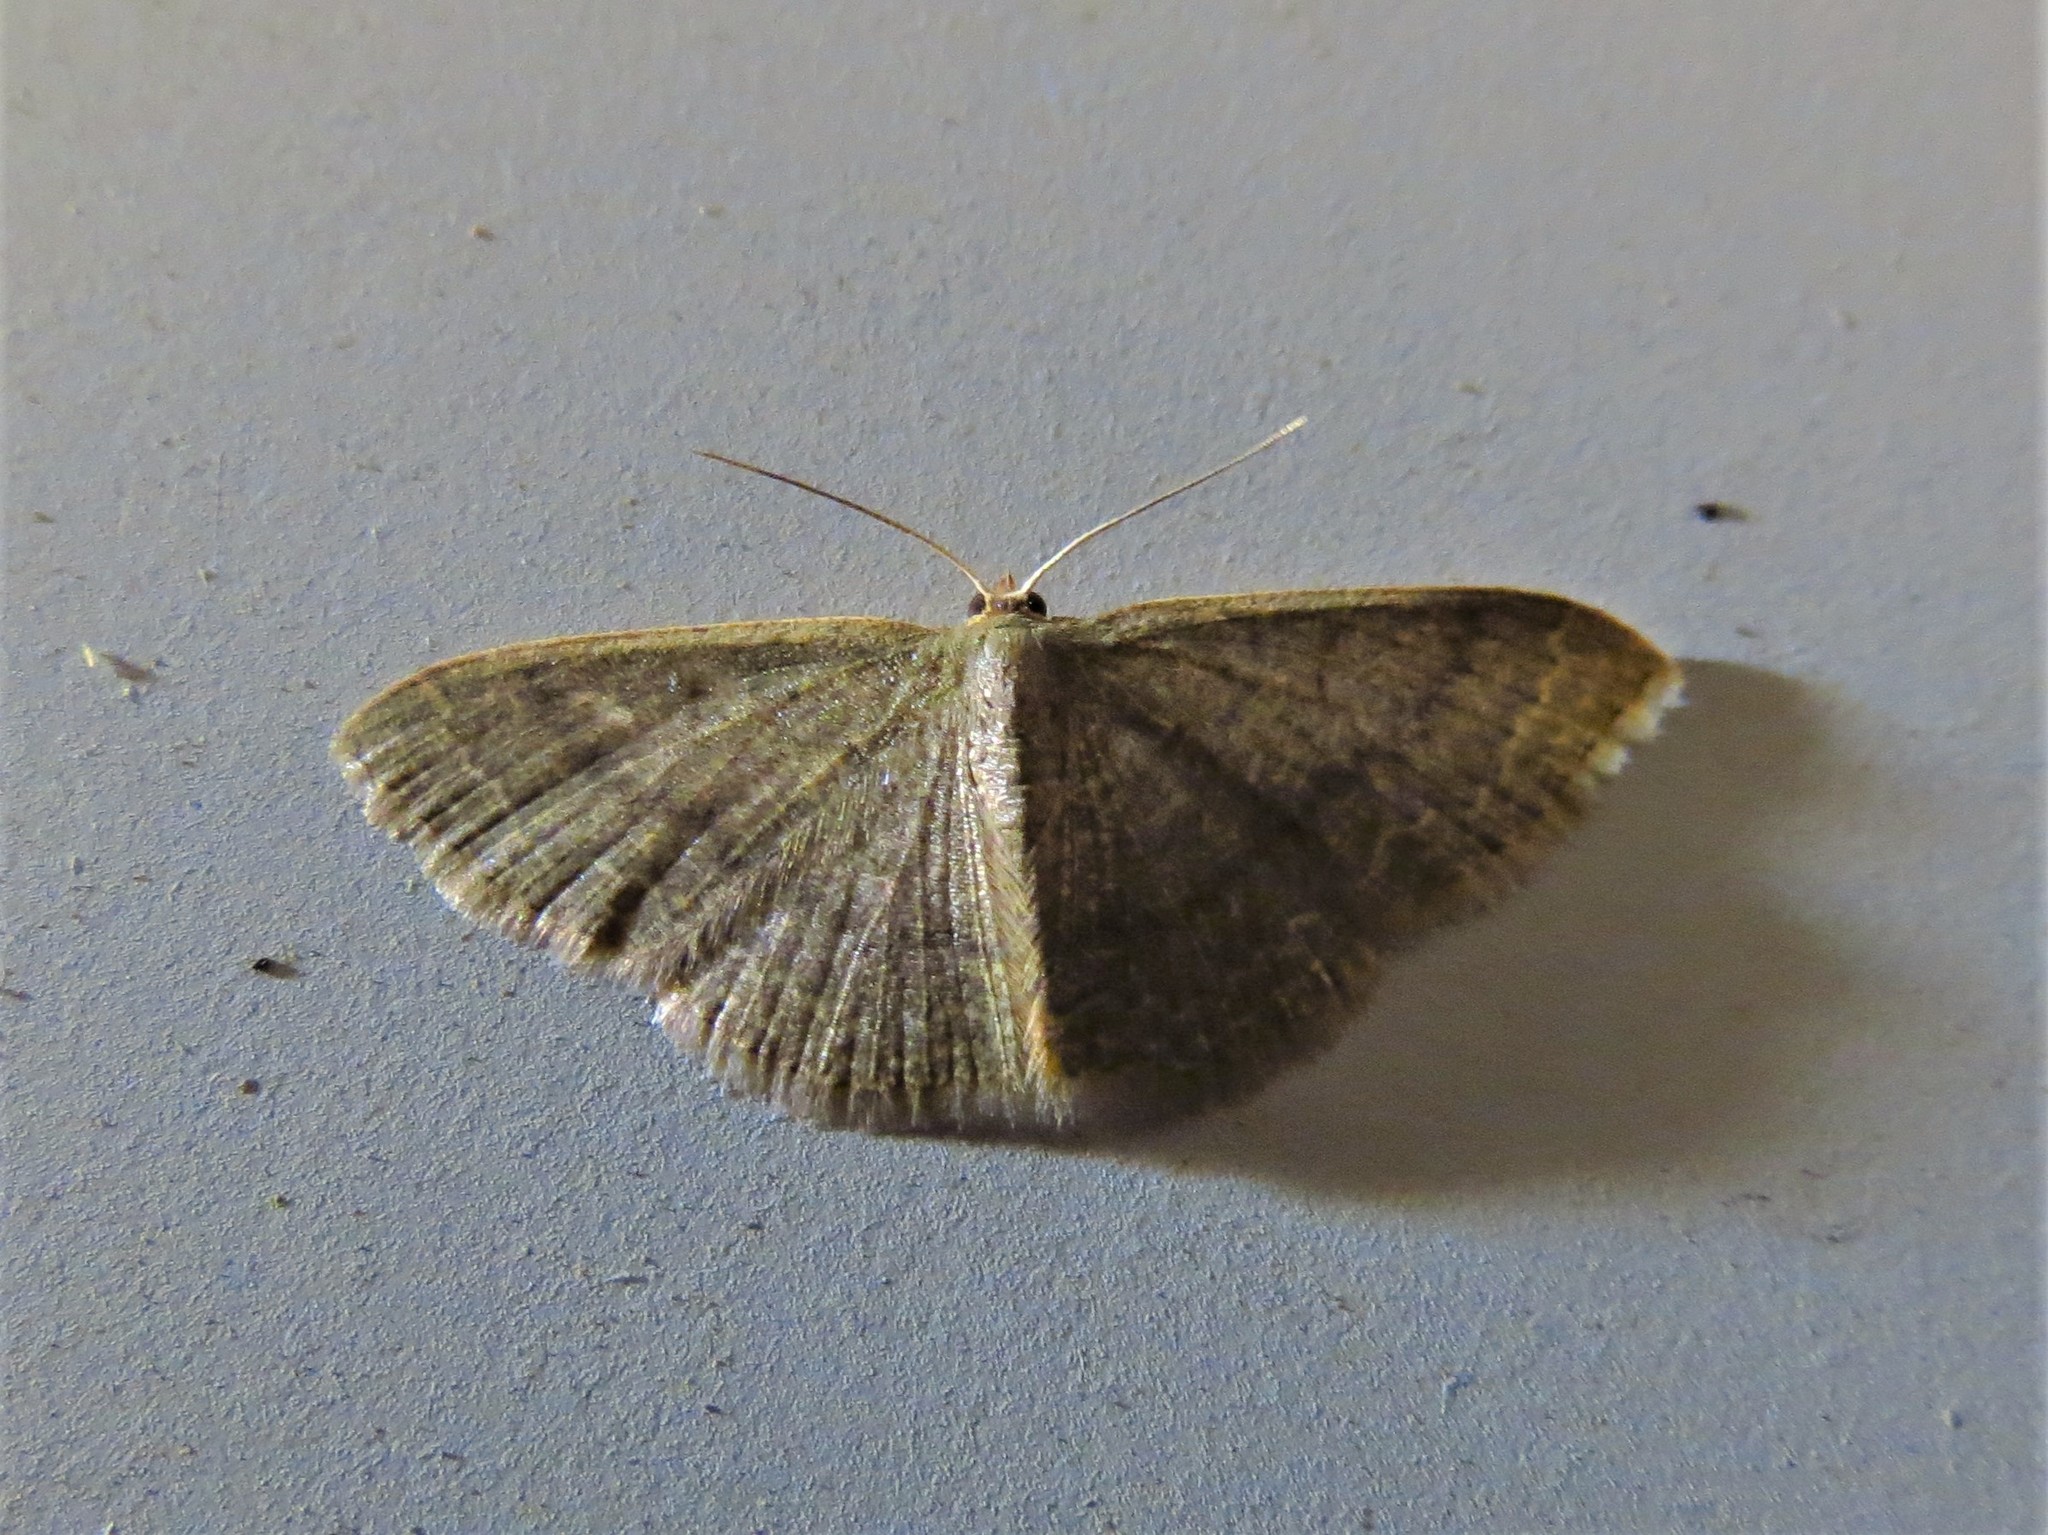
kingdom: Animalia
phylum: Arthropoda
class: Insecta
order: Lepidoptera
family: Geometridae
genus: Pleuroprucha
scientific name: Pleuroprucha insulsaria
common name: Common tan wave
